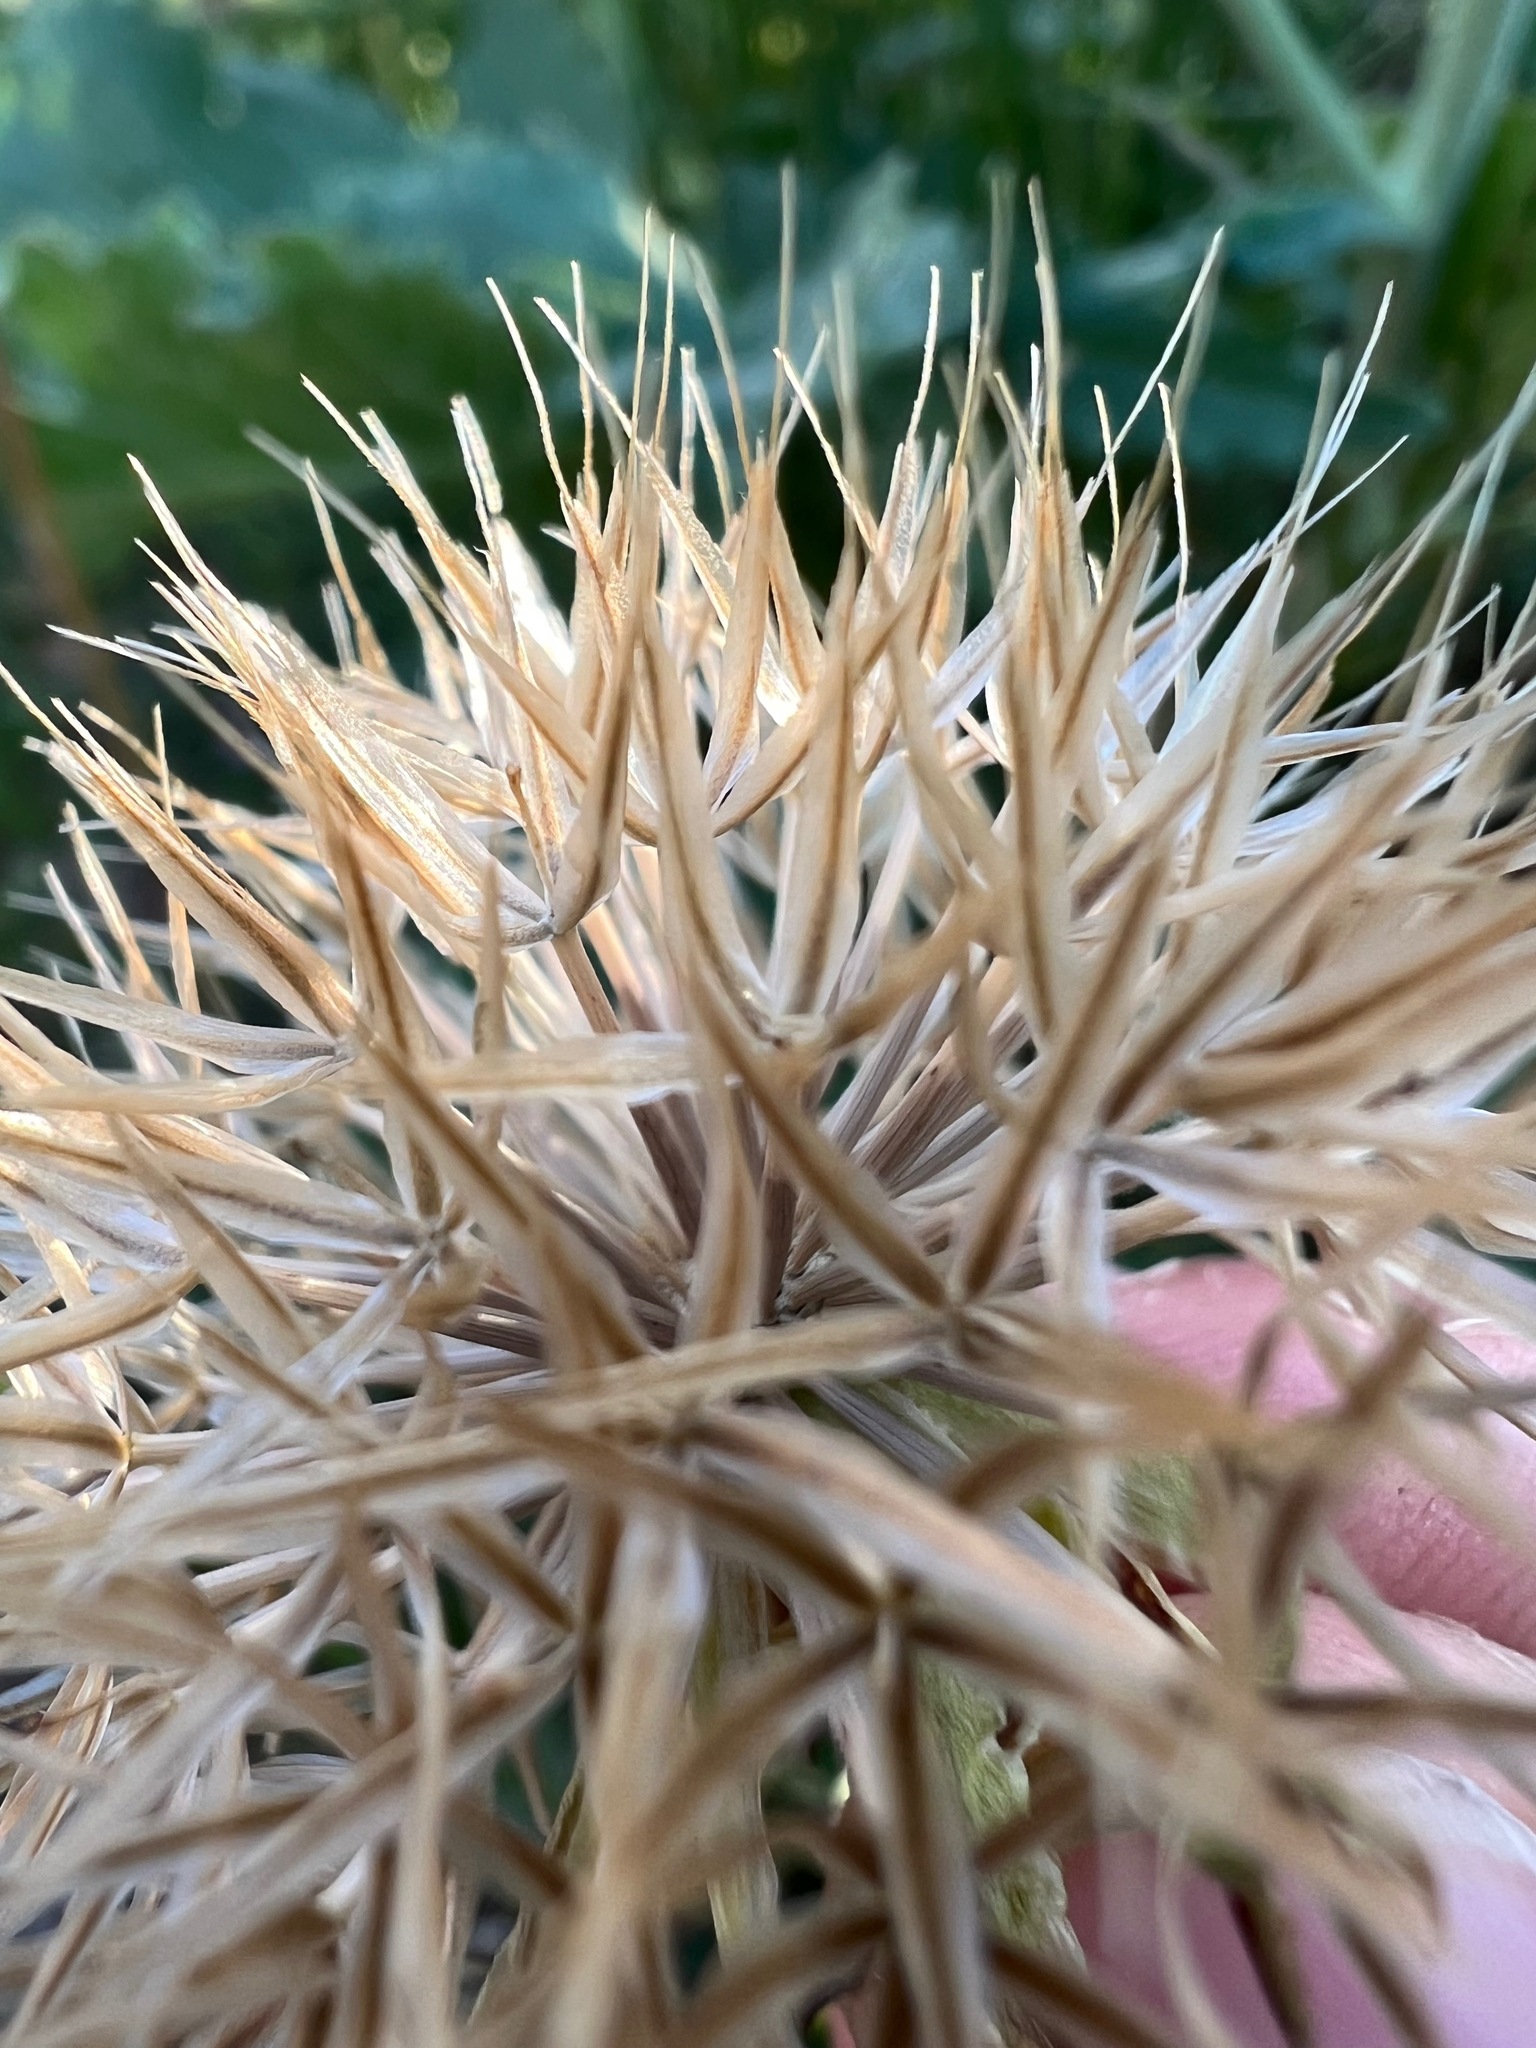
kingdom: Plantae
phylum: Tracheophyta
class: Magnoliopsida
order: Asterales
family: Asteraceae
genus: Microseris
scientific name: Microseris heterocarpa
